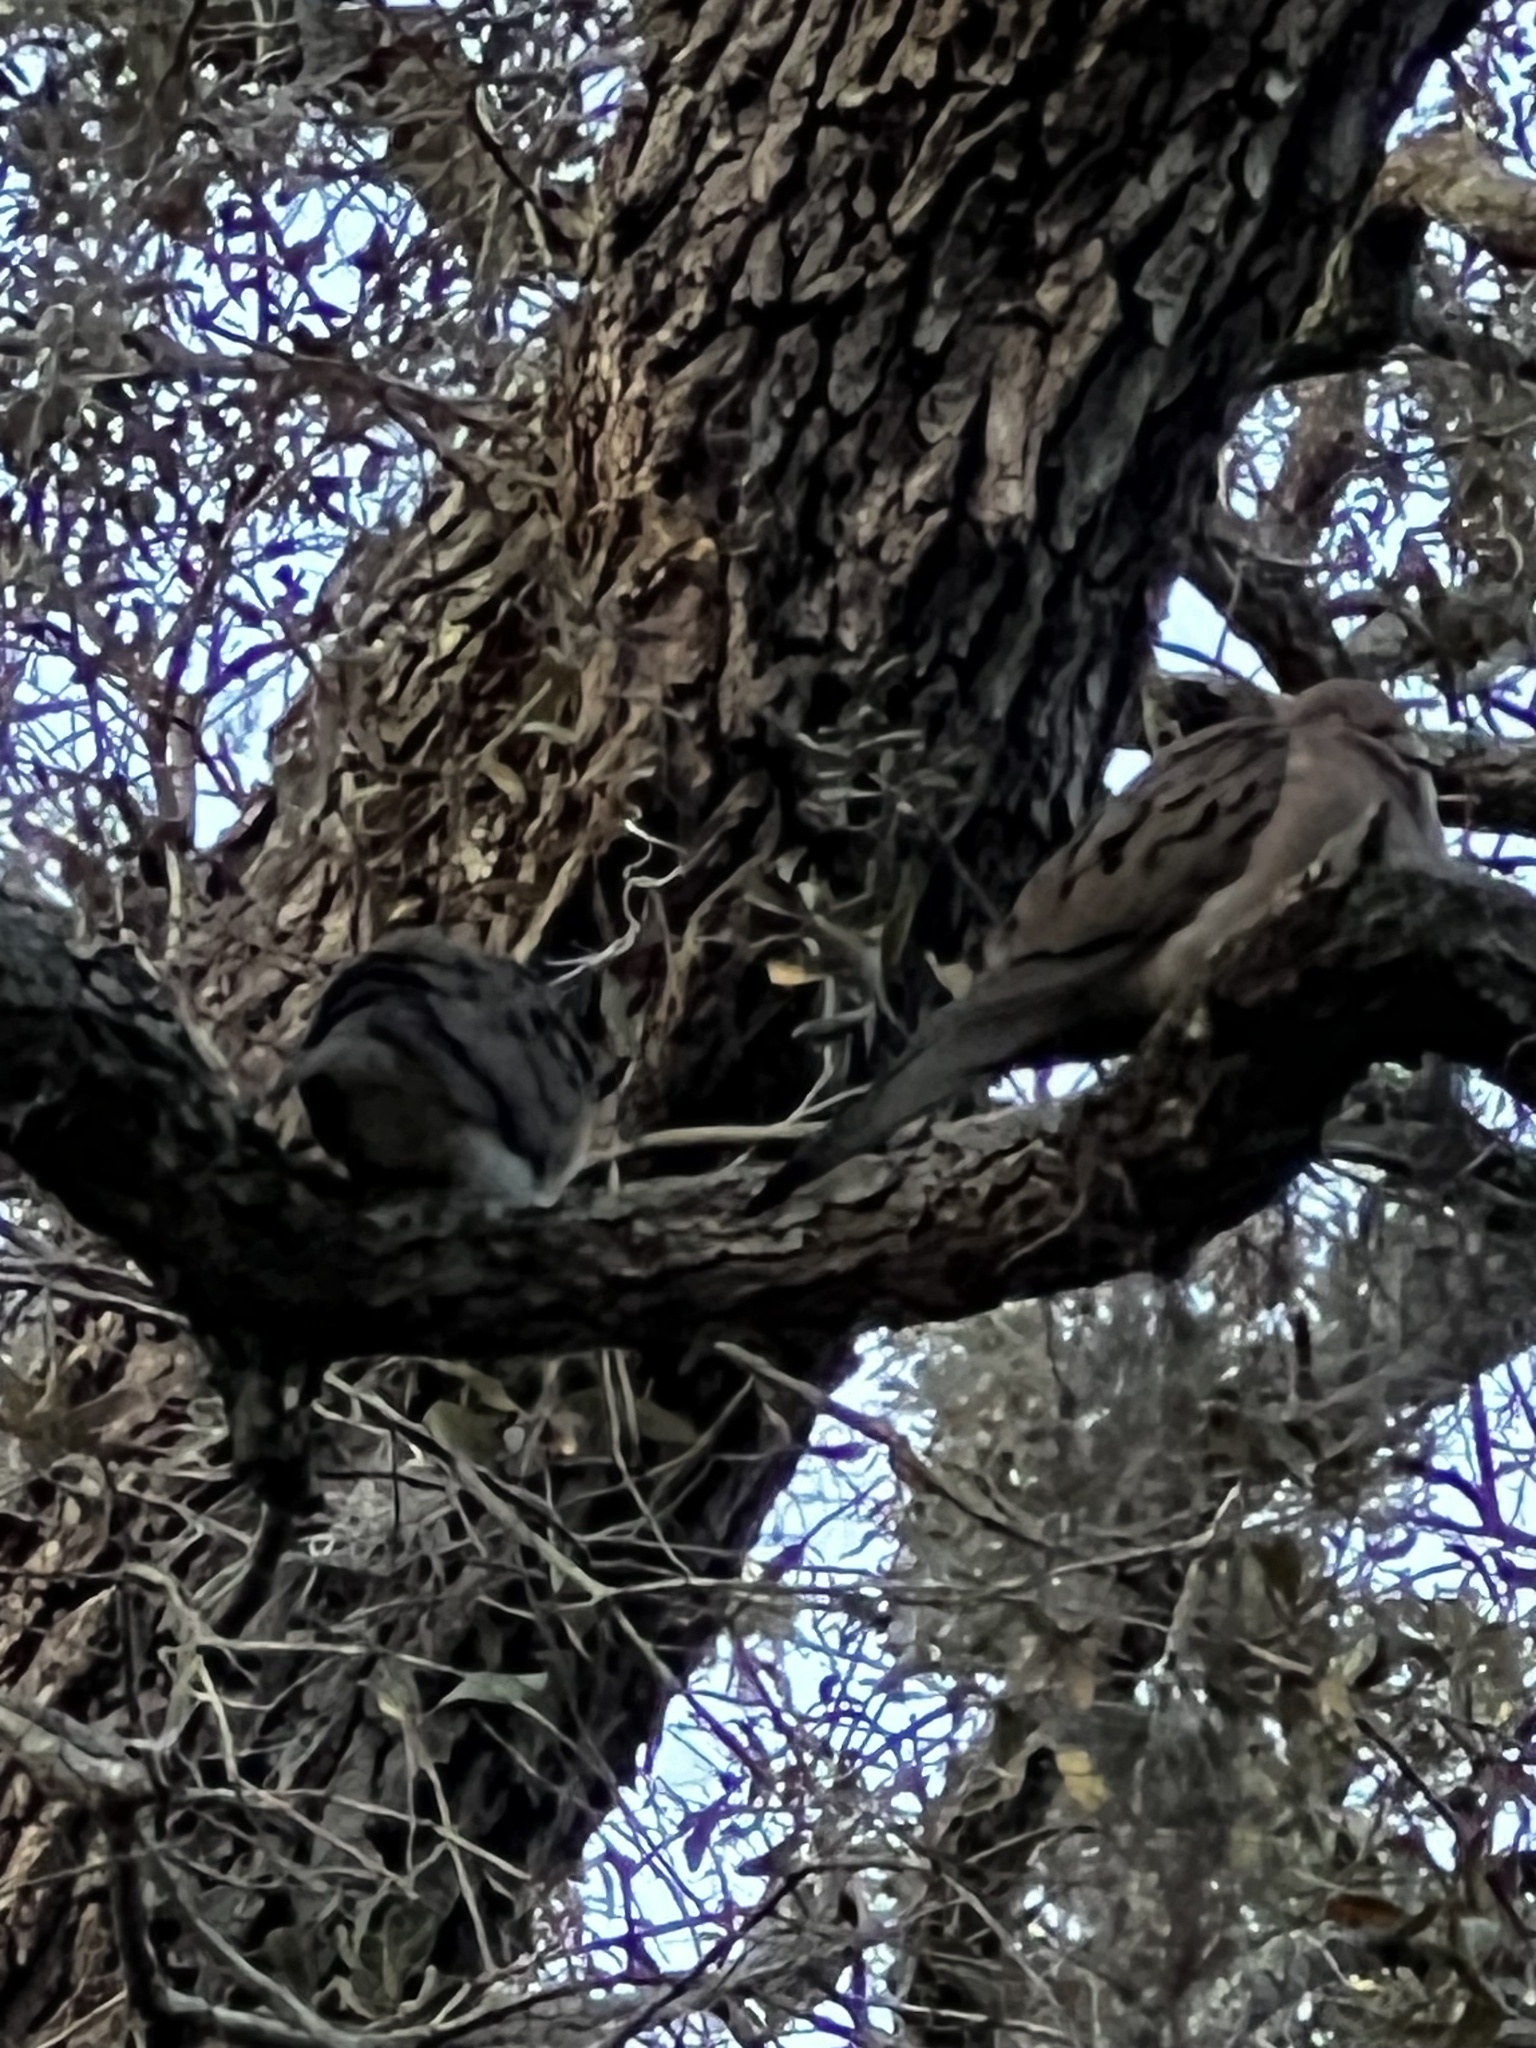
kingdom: Animalia
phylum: Chordata
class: Aves
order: Columbiformes
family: Columbidae
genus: Zenaida
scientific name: Zenaida macroura
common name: Mourning dove
